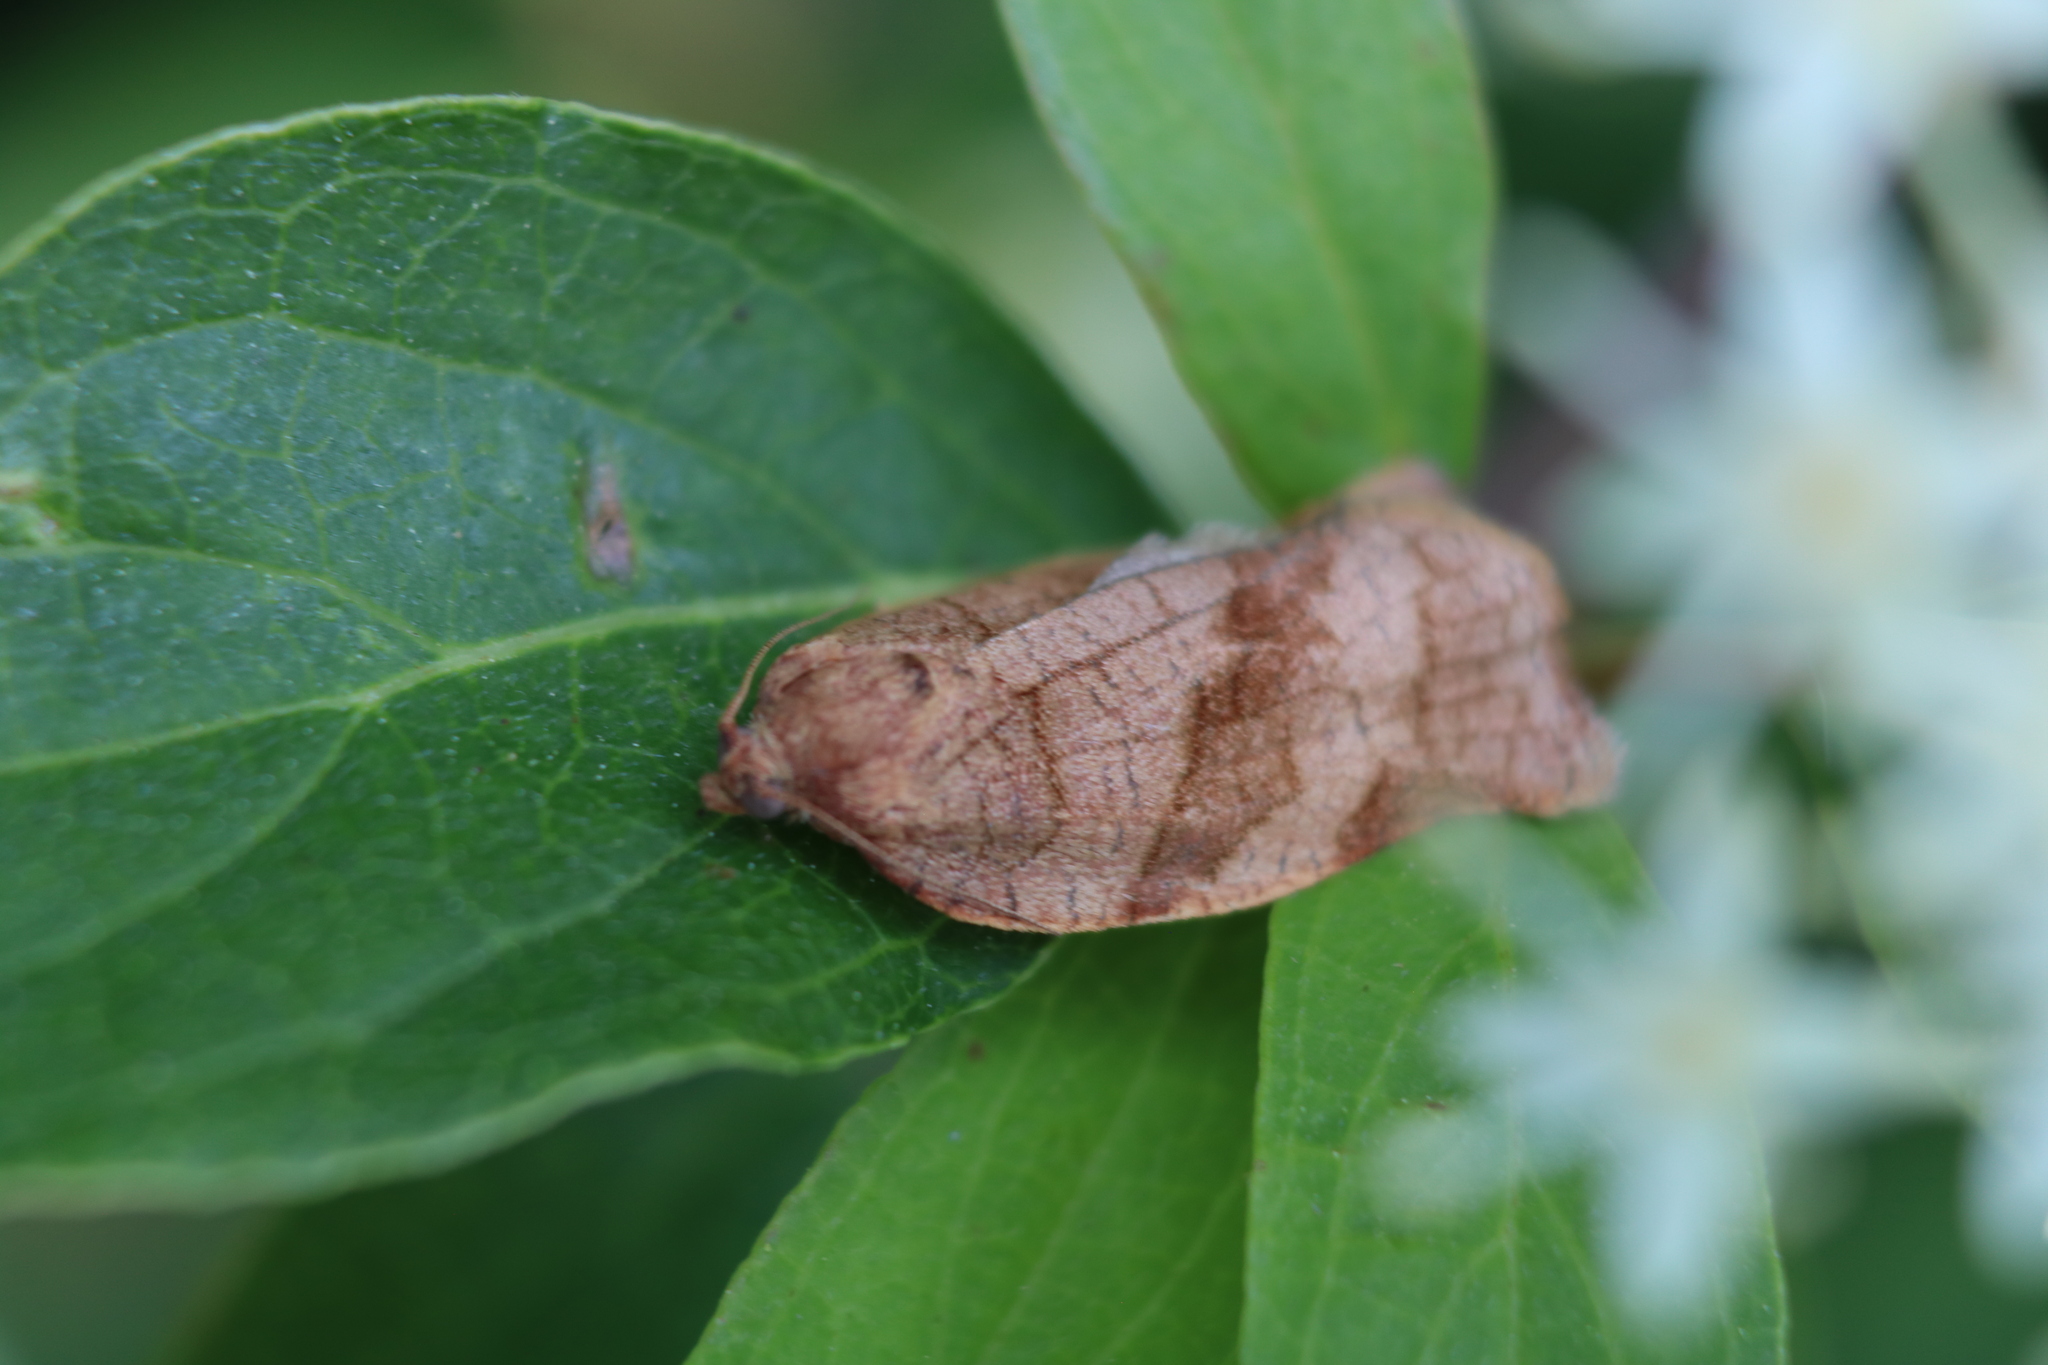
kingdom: Animalia
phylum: Arthropoda
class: Insecta
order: Lepidoptera
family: Tortricidae
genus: Choristoneura
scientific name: Choristoneura rosaceana
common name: Oblique-banded leafroller moth
